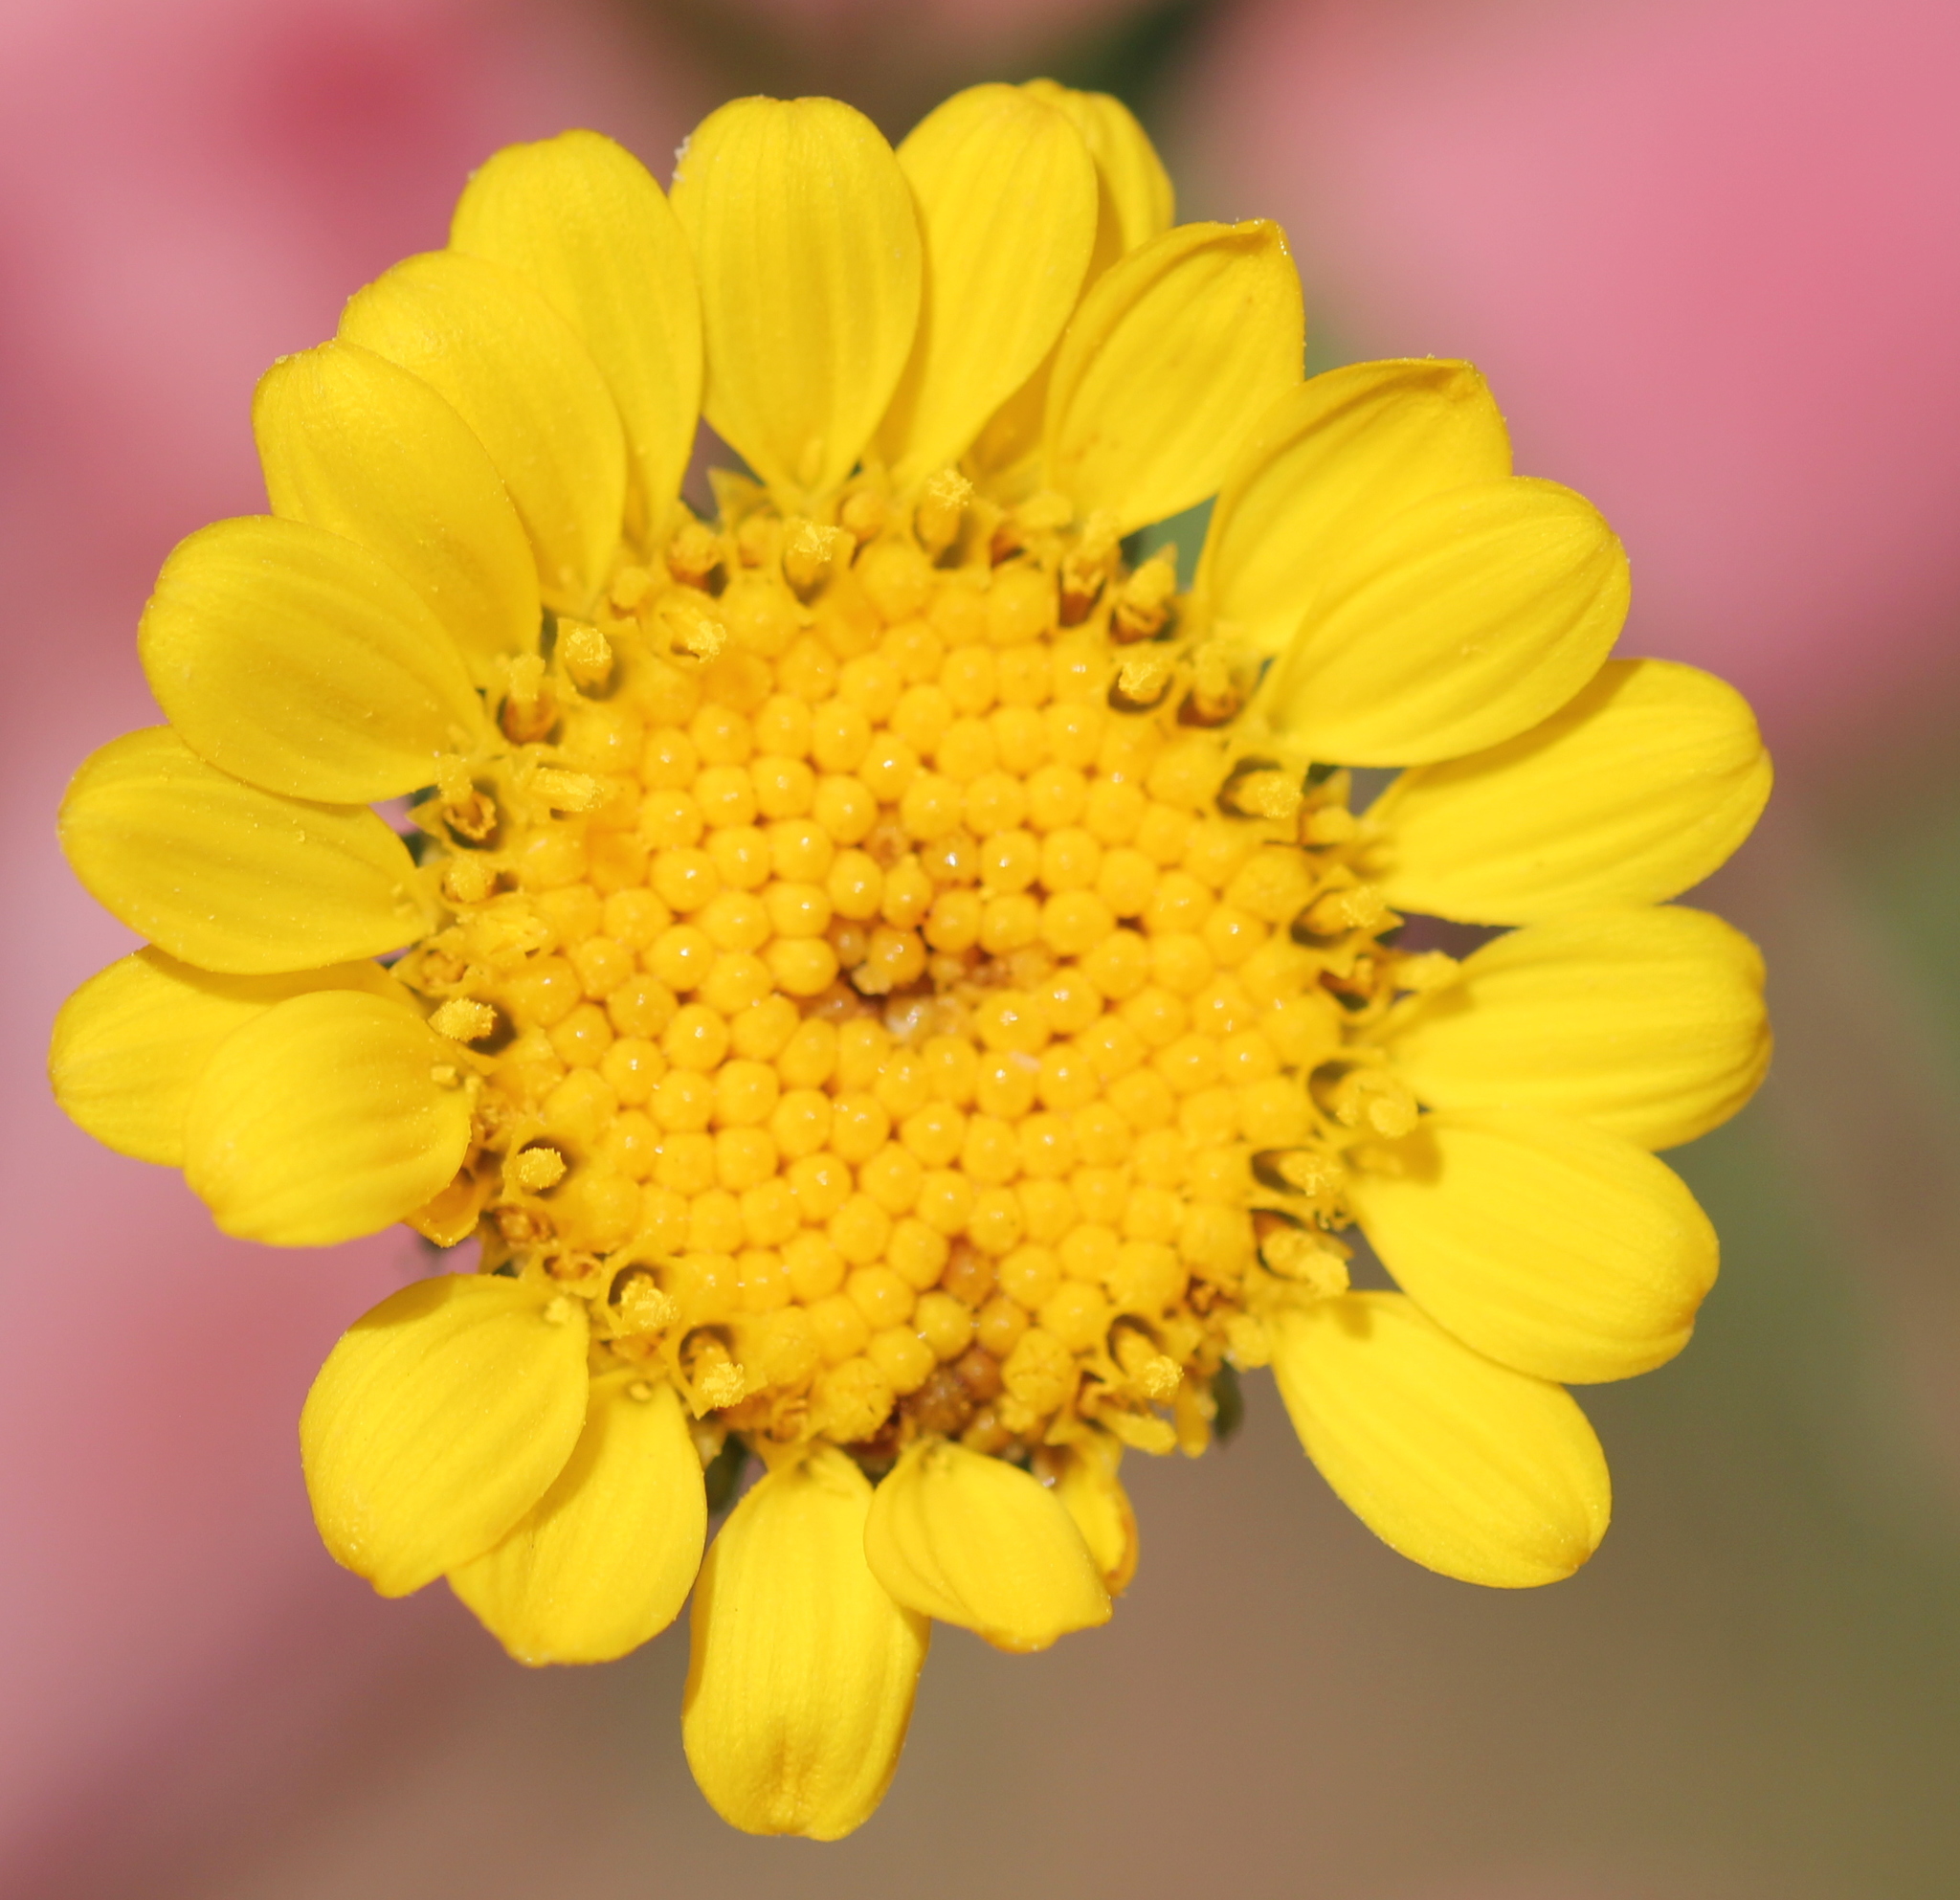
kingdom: Plantae
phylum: Tracheophyta
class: Magnoliopsida
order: Asterales
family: Asteraceae
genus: Grindelia
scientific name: Grindelia hirsutula
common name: Hairy gumweed
